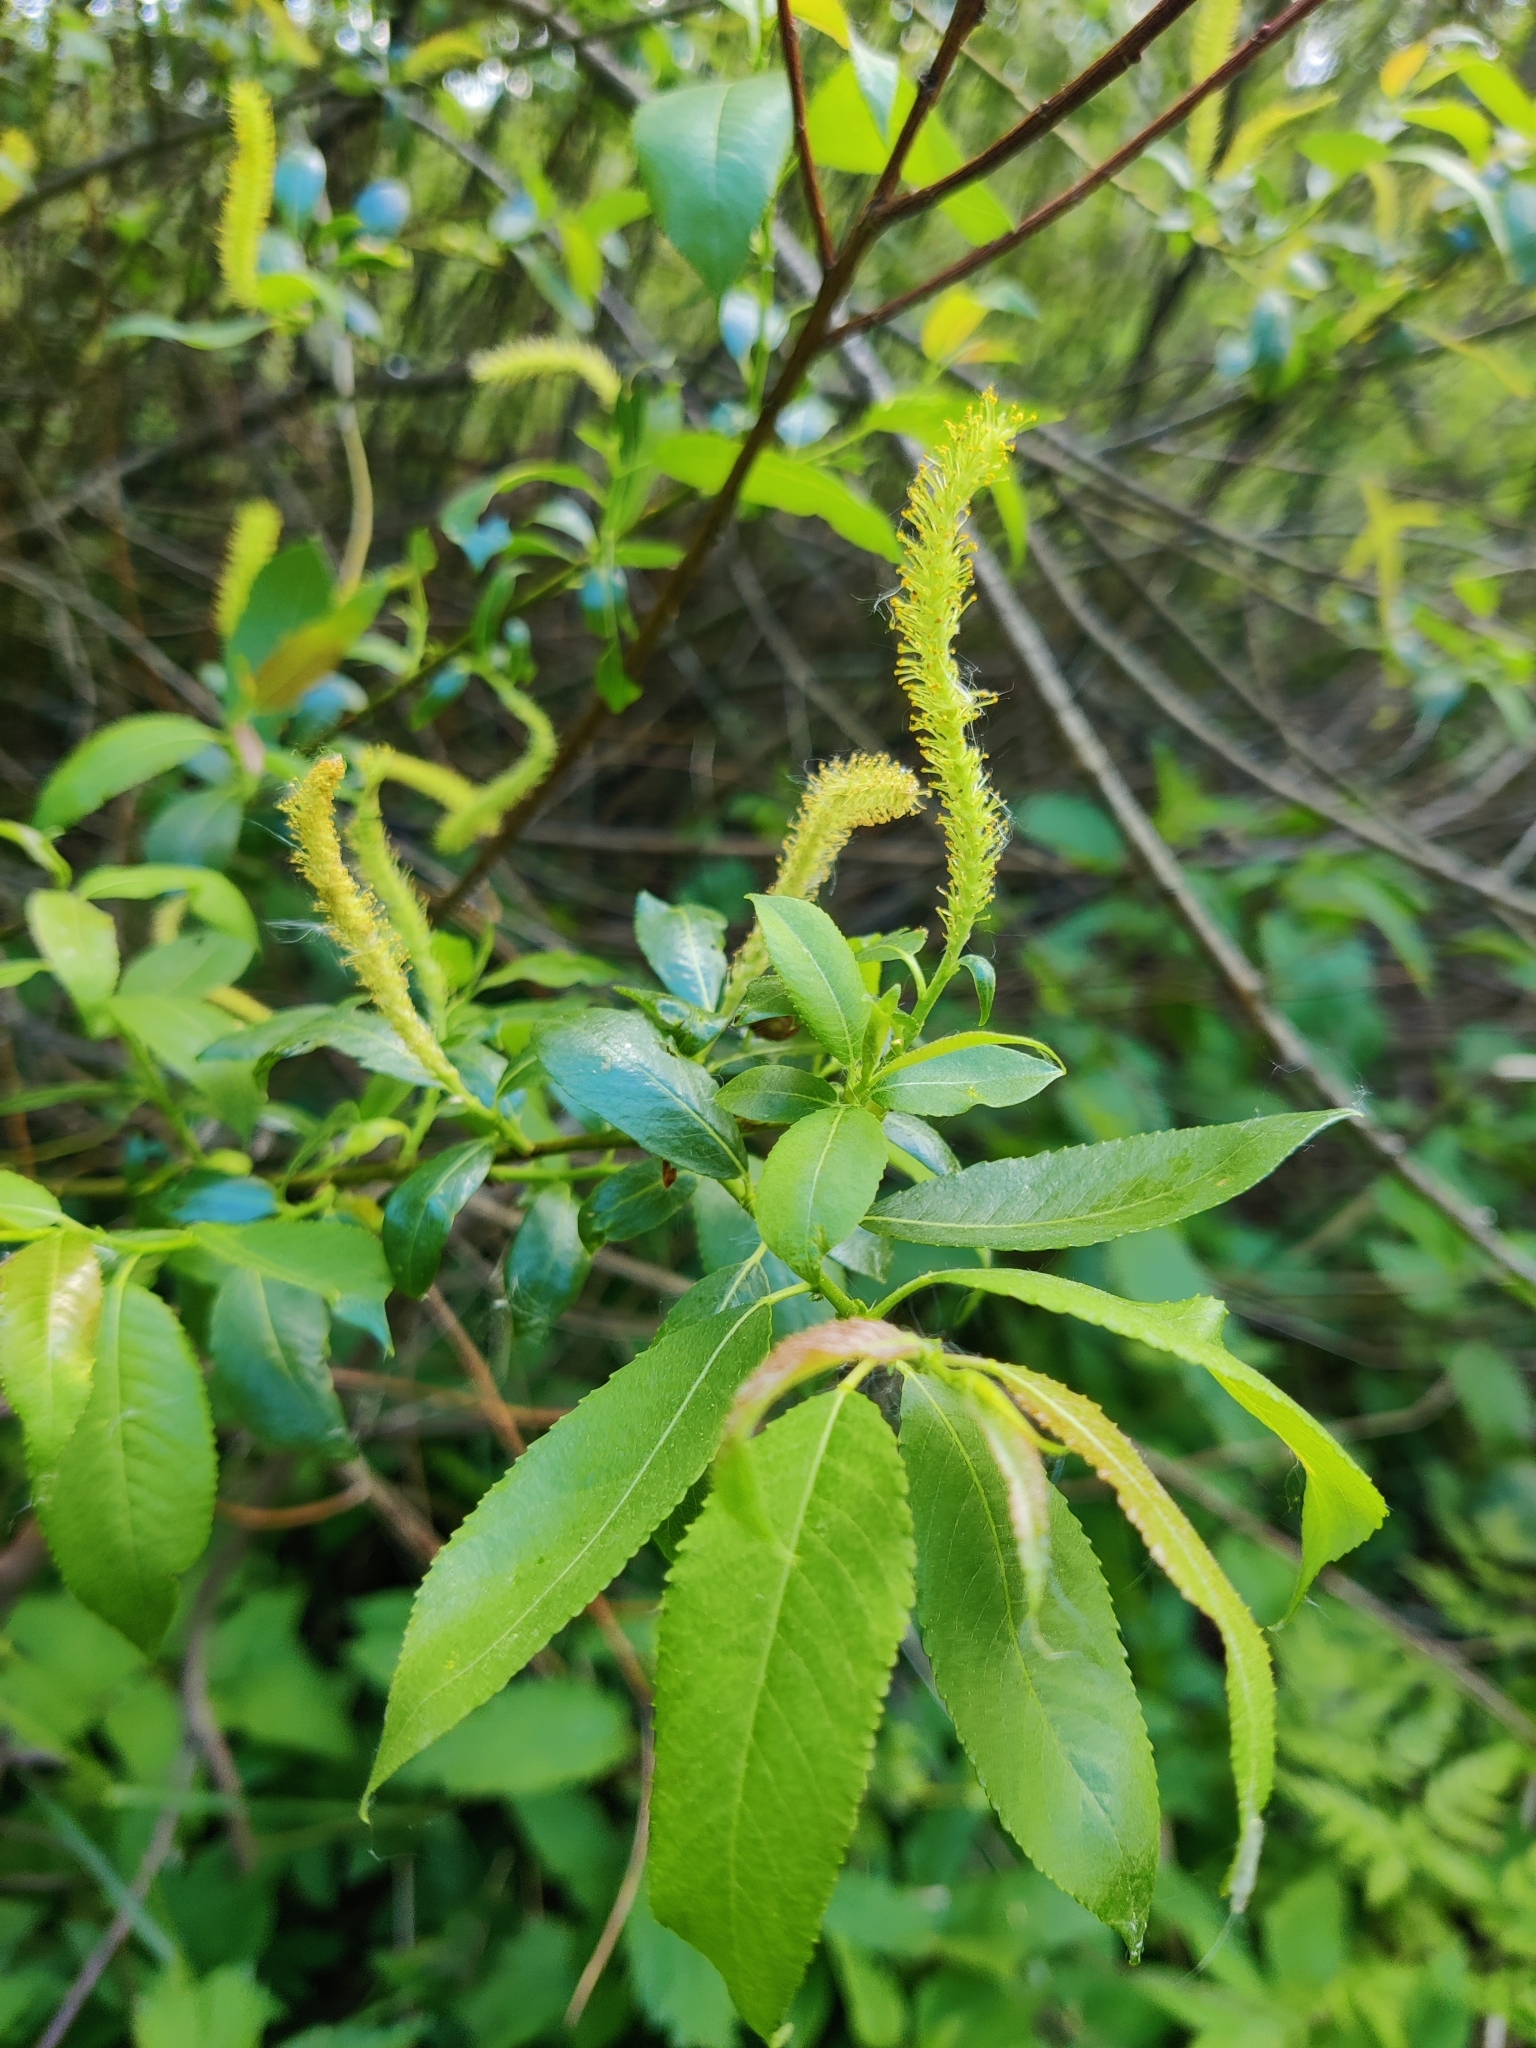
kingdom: Plantae
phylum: Tracheophyta
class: Magnoliopsida
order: Malpighiales
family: Salicaceae
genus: Salix
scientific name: Salix triandra
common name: Almond willow
